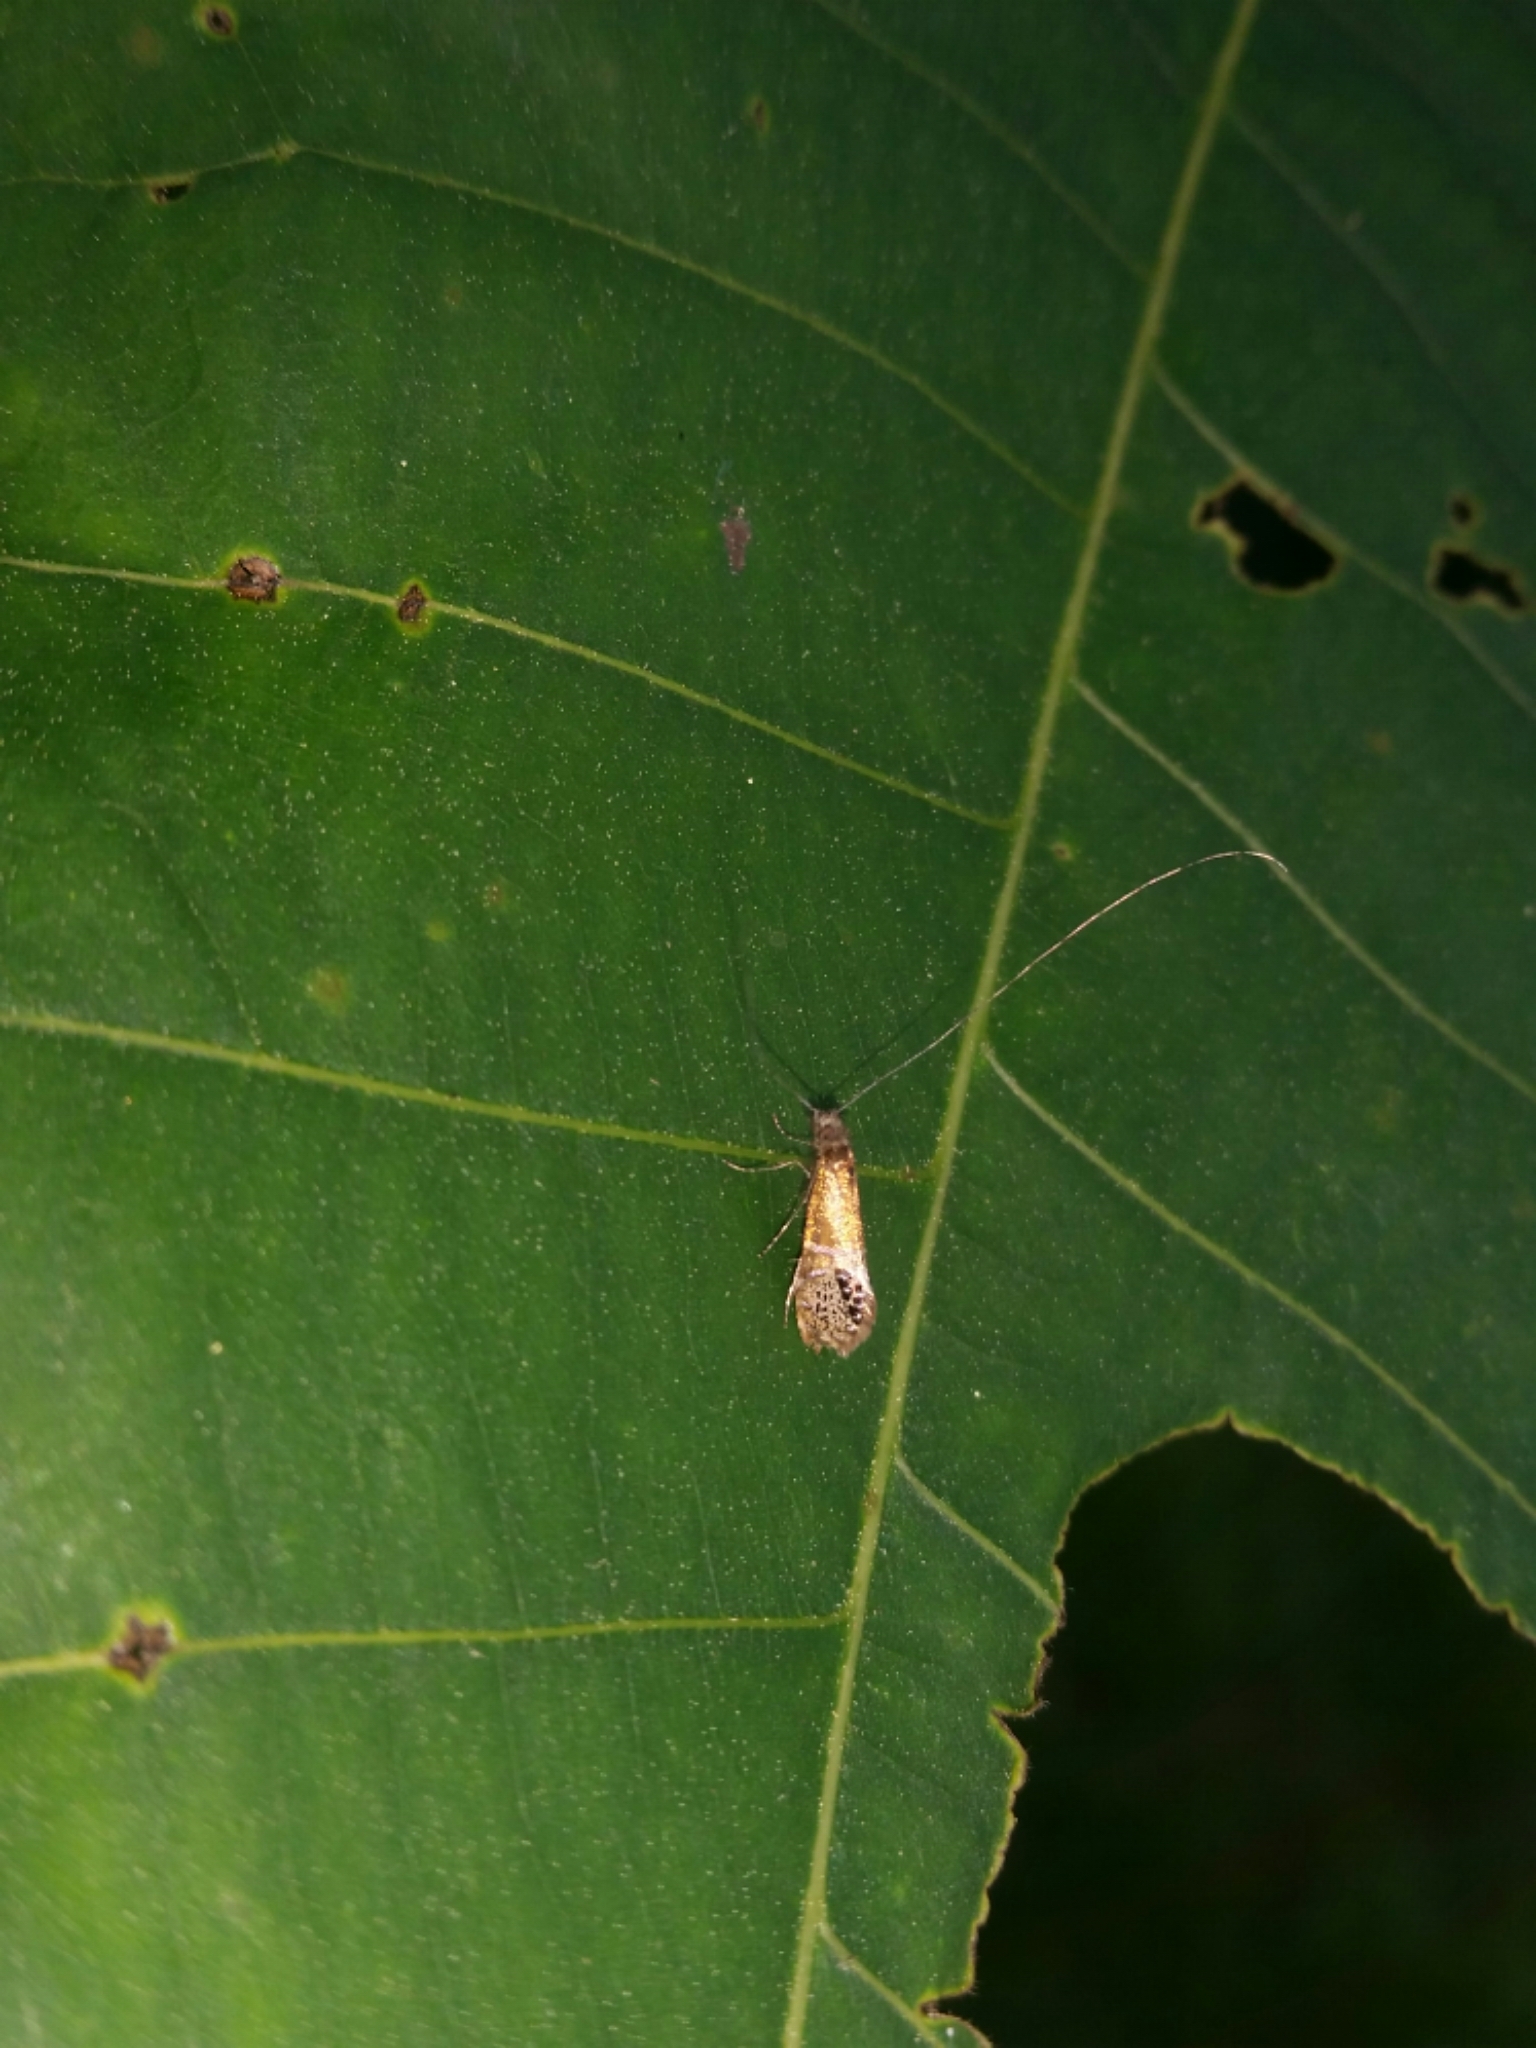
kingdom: Animalia
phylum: Arthropoda
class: Insecta
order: Lepidoptera
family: Adelidae
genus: Adela
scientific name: Adela ridingsella
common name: Ridings' fairy moth
